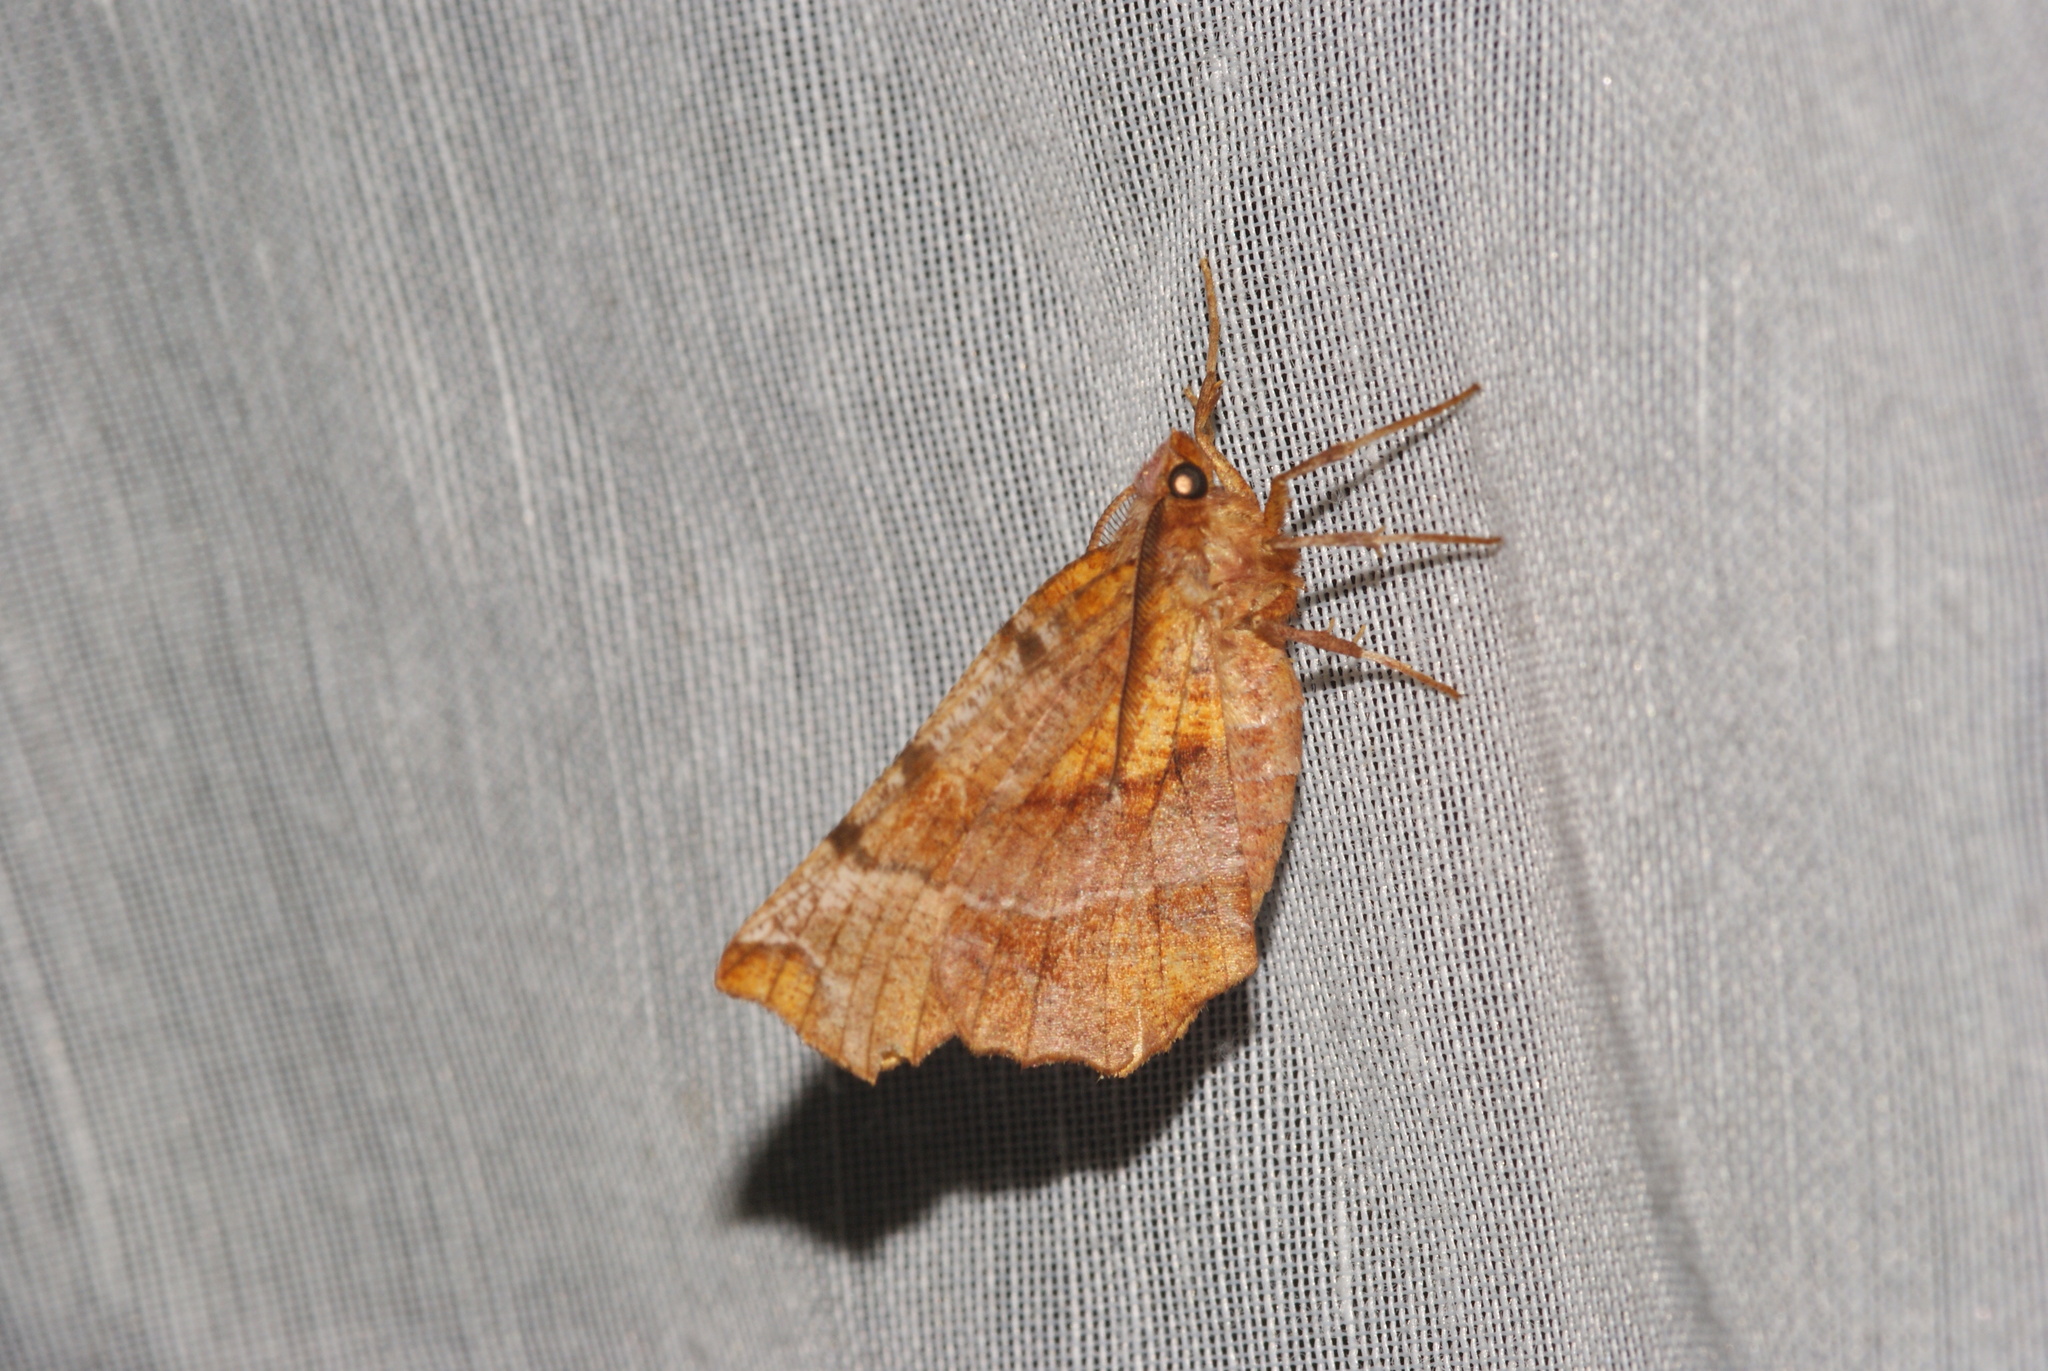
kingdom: Animalia
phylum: Arthropoda
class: Insecta
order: Lepidoptera
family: Geometridae
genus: Selenia
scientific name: Selenia dentaria
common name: Early thorn
